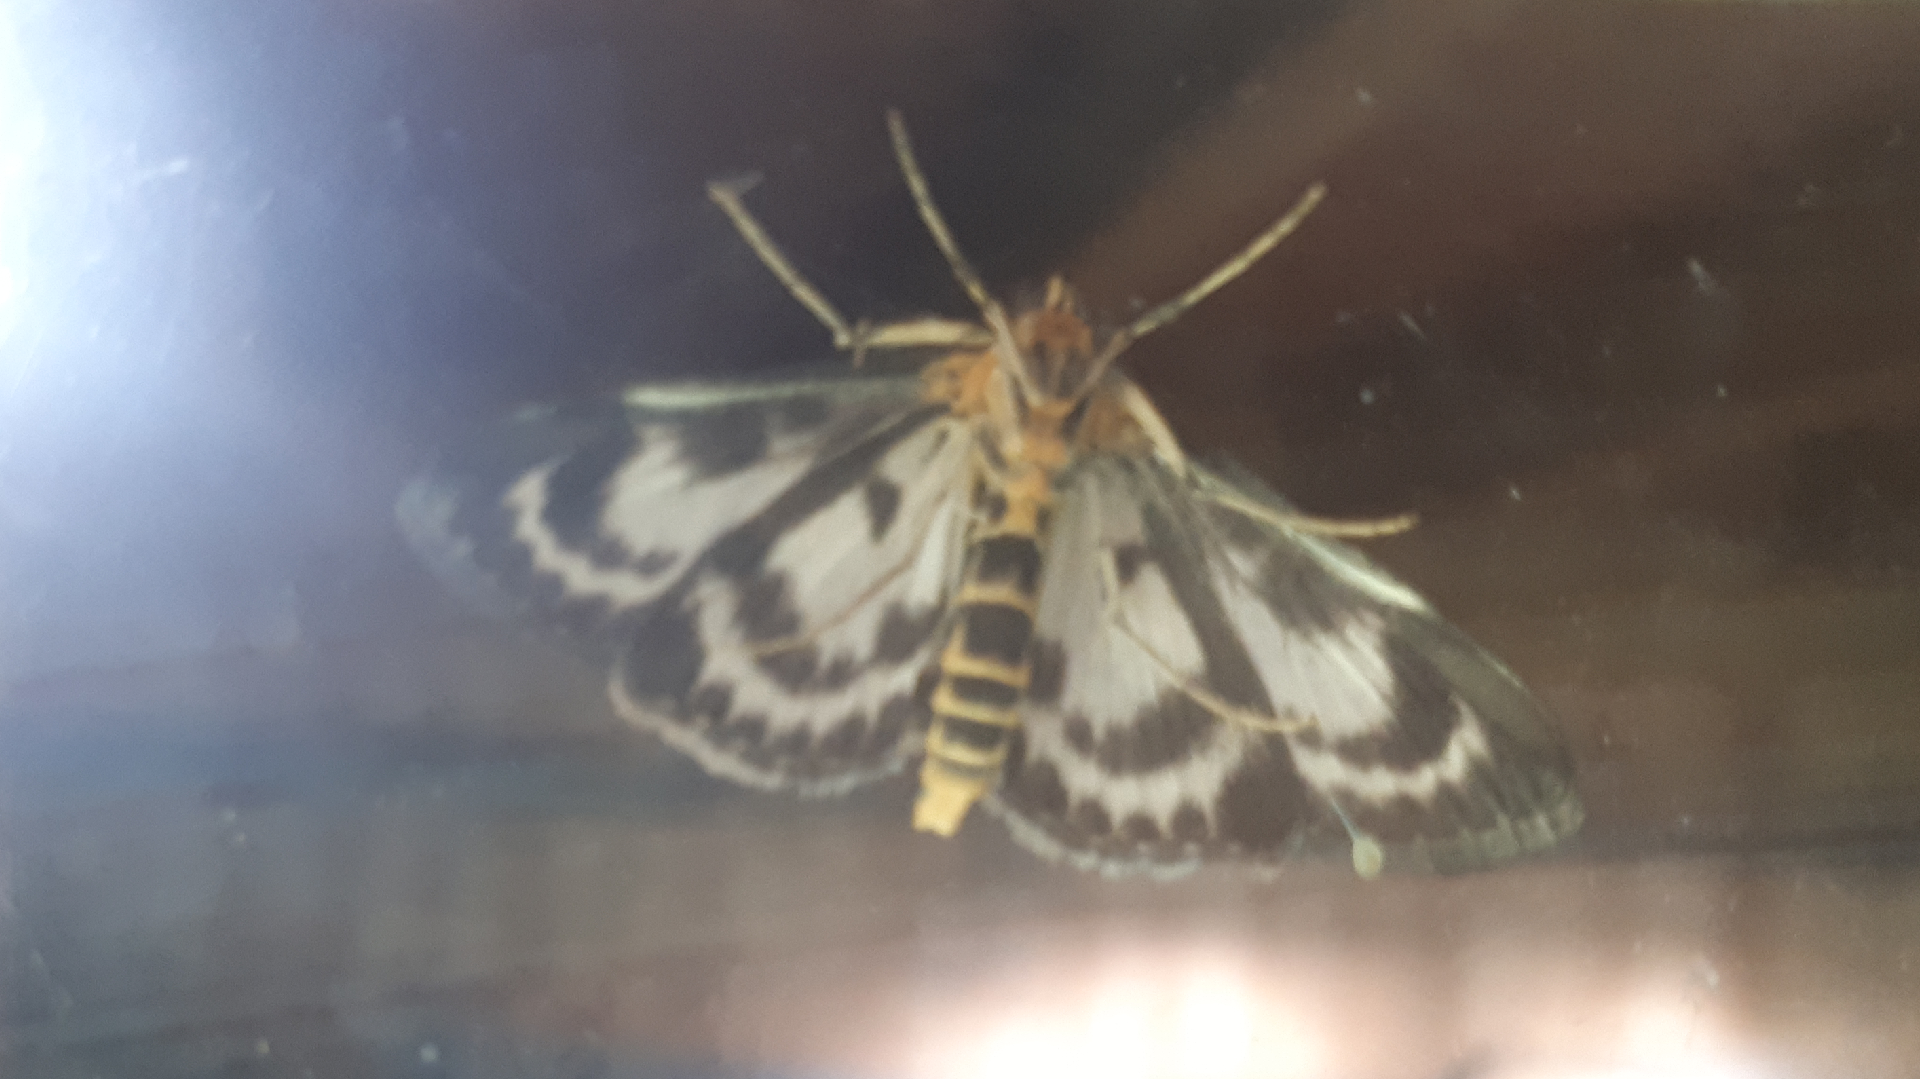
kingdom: Animalia
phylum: Arthropoda
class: Insecta
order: Lepidoptera
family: Crambidae
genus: Anania
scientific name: Anania hortulata
